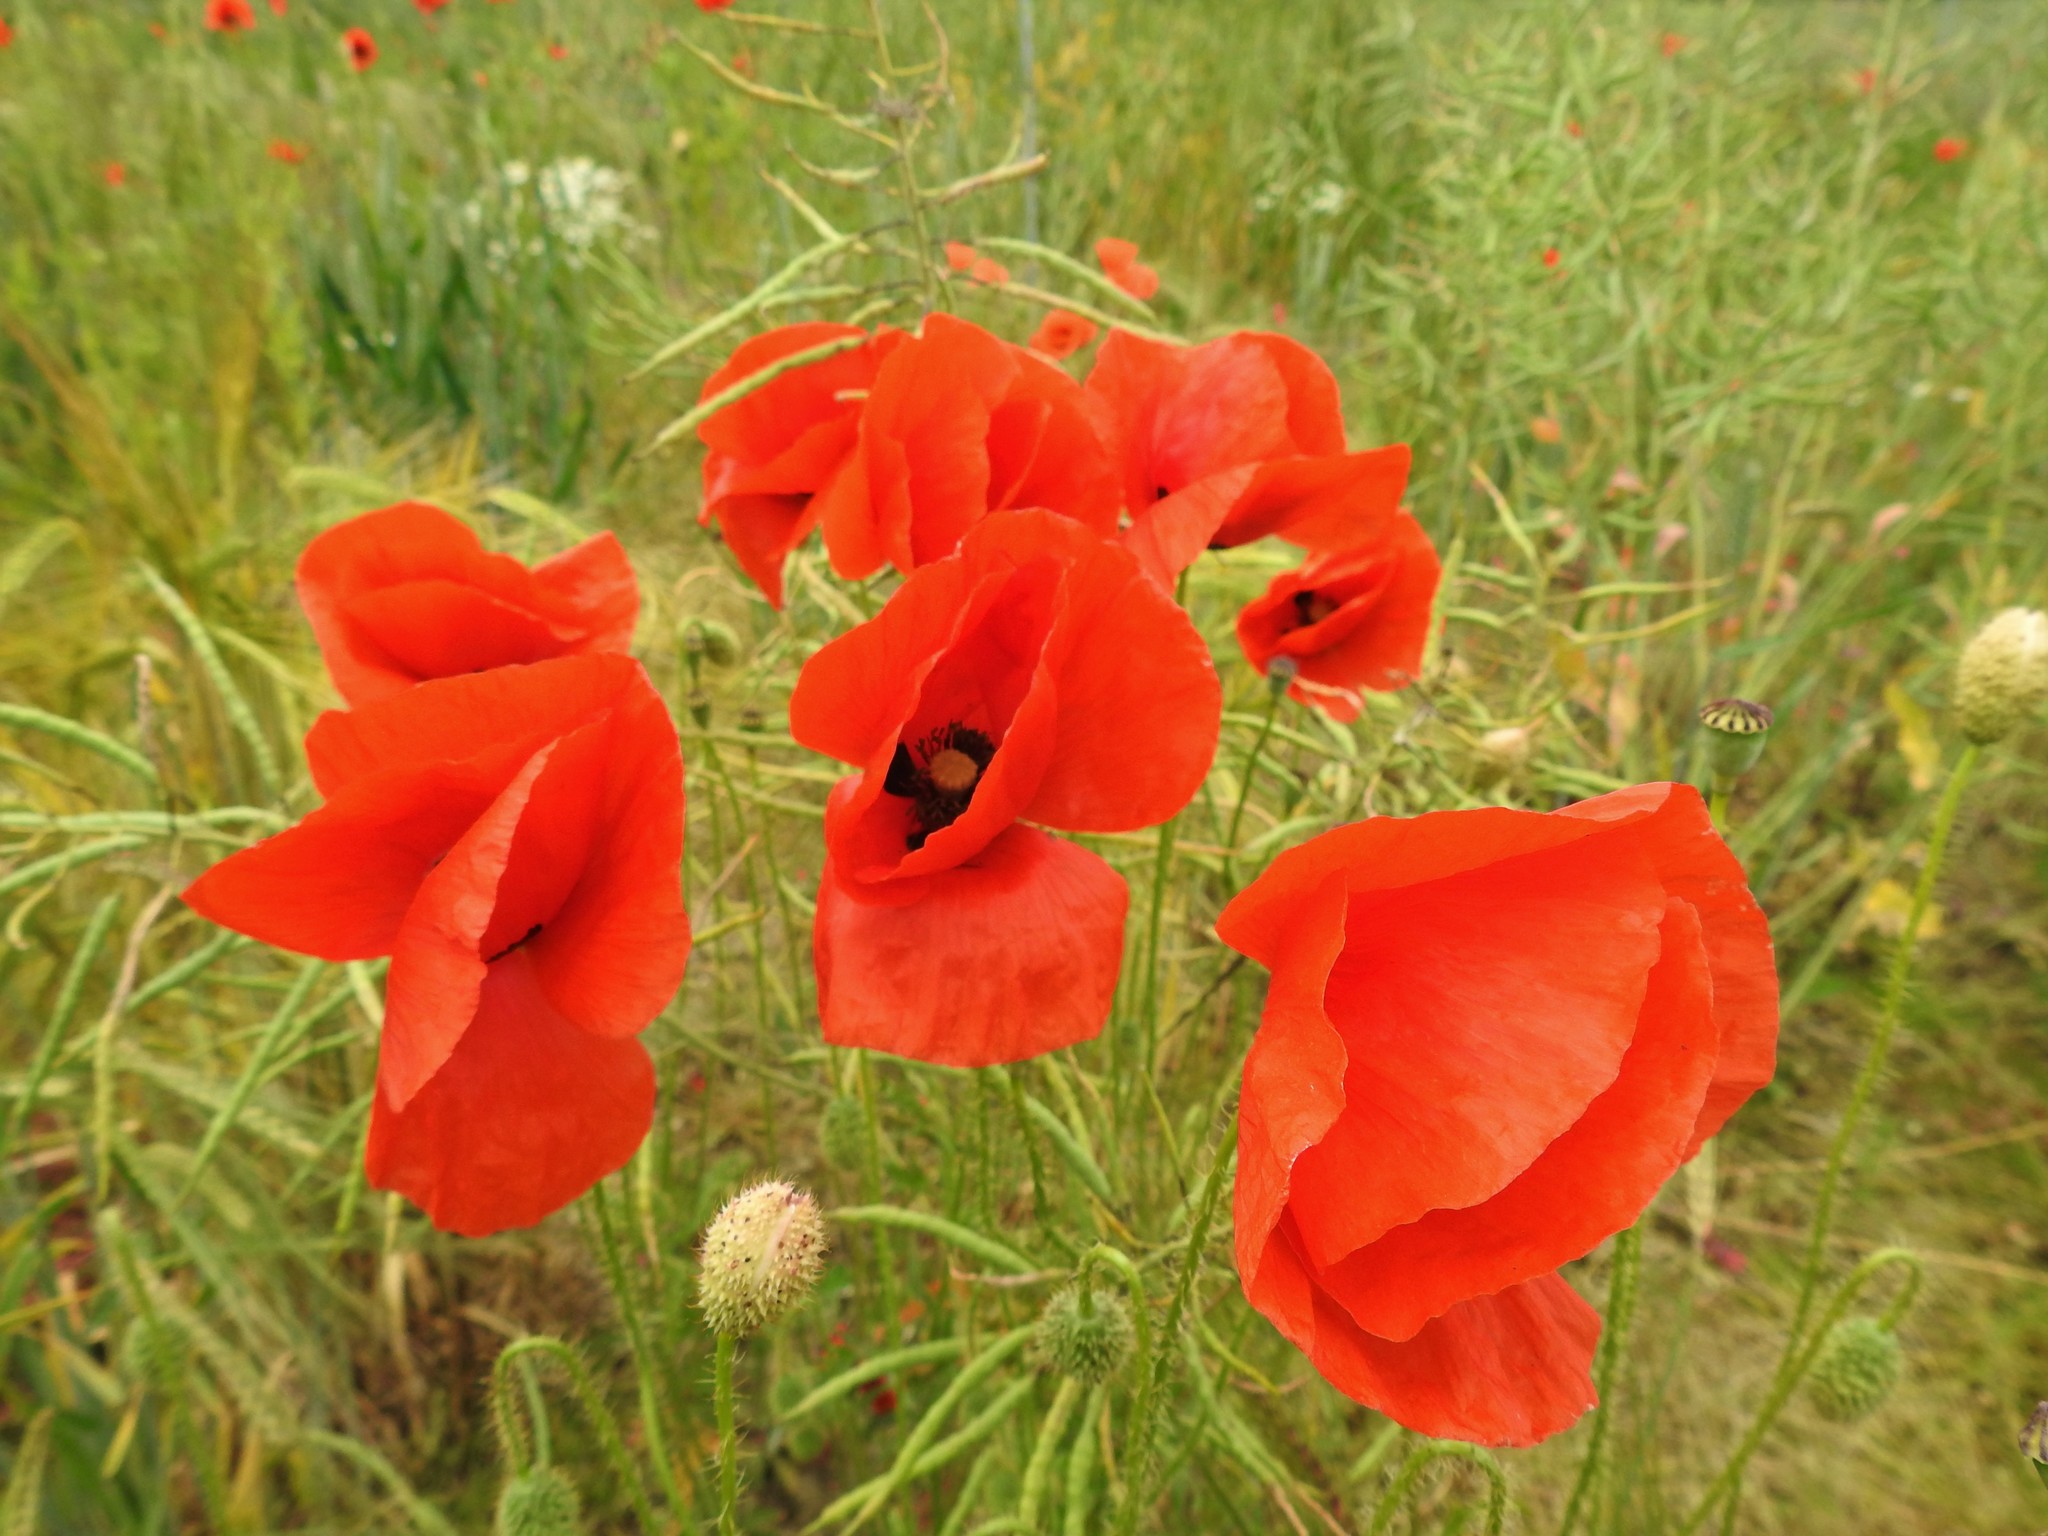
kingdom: Plantae
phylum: Tracheophyta
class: Magnoliopsida
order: Ranunculales
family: Papaveraceae
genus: Papaver
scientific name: Papaver rhoeas
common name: Corn poppy
